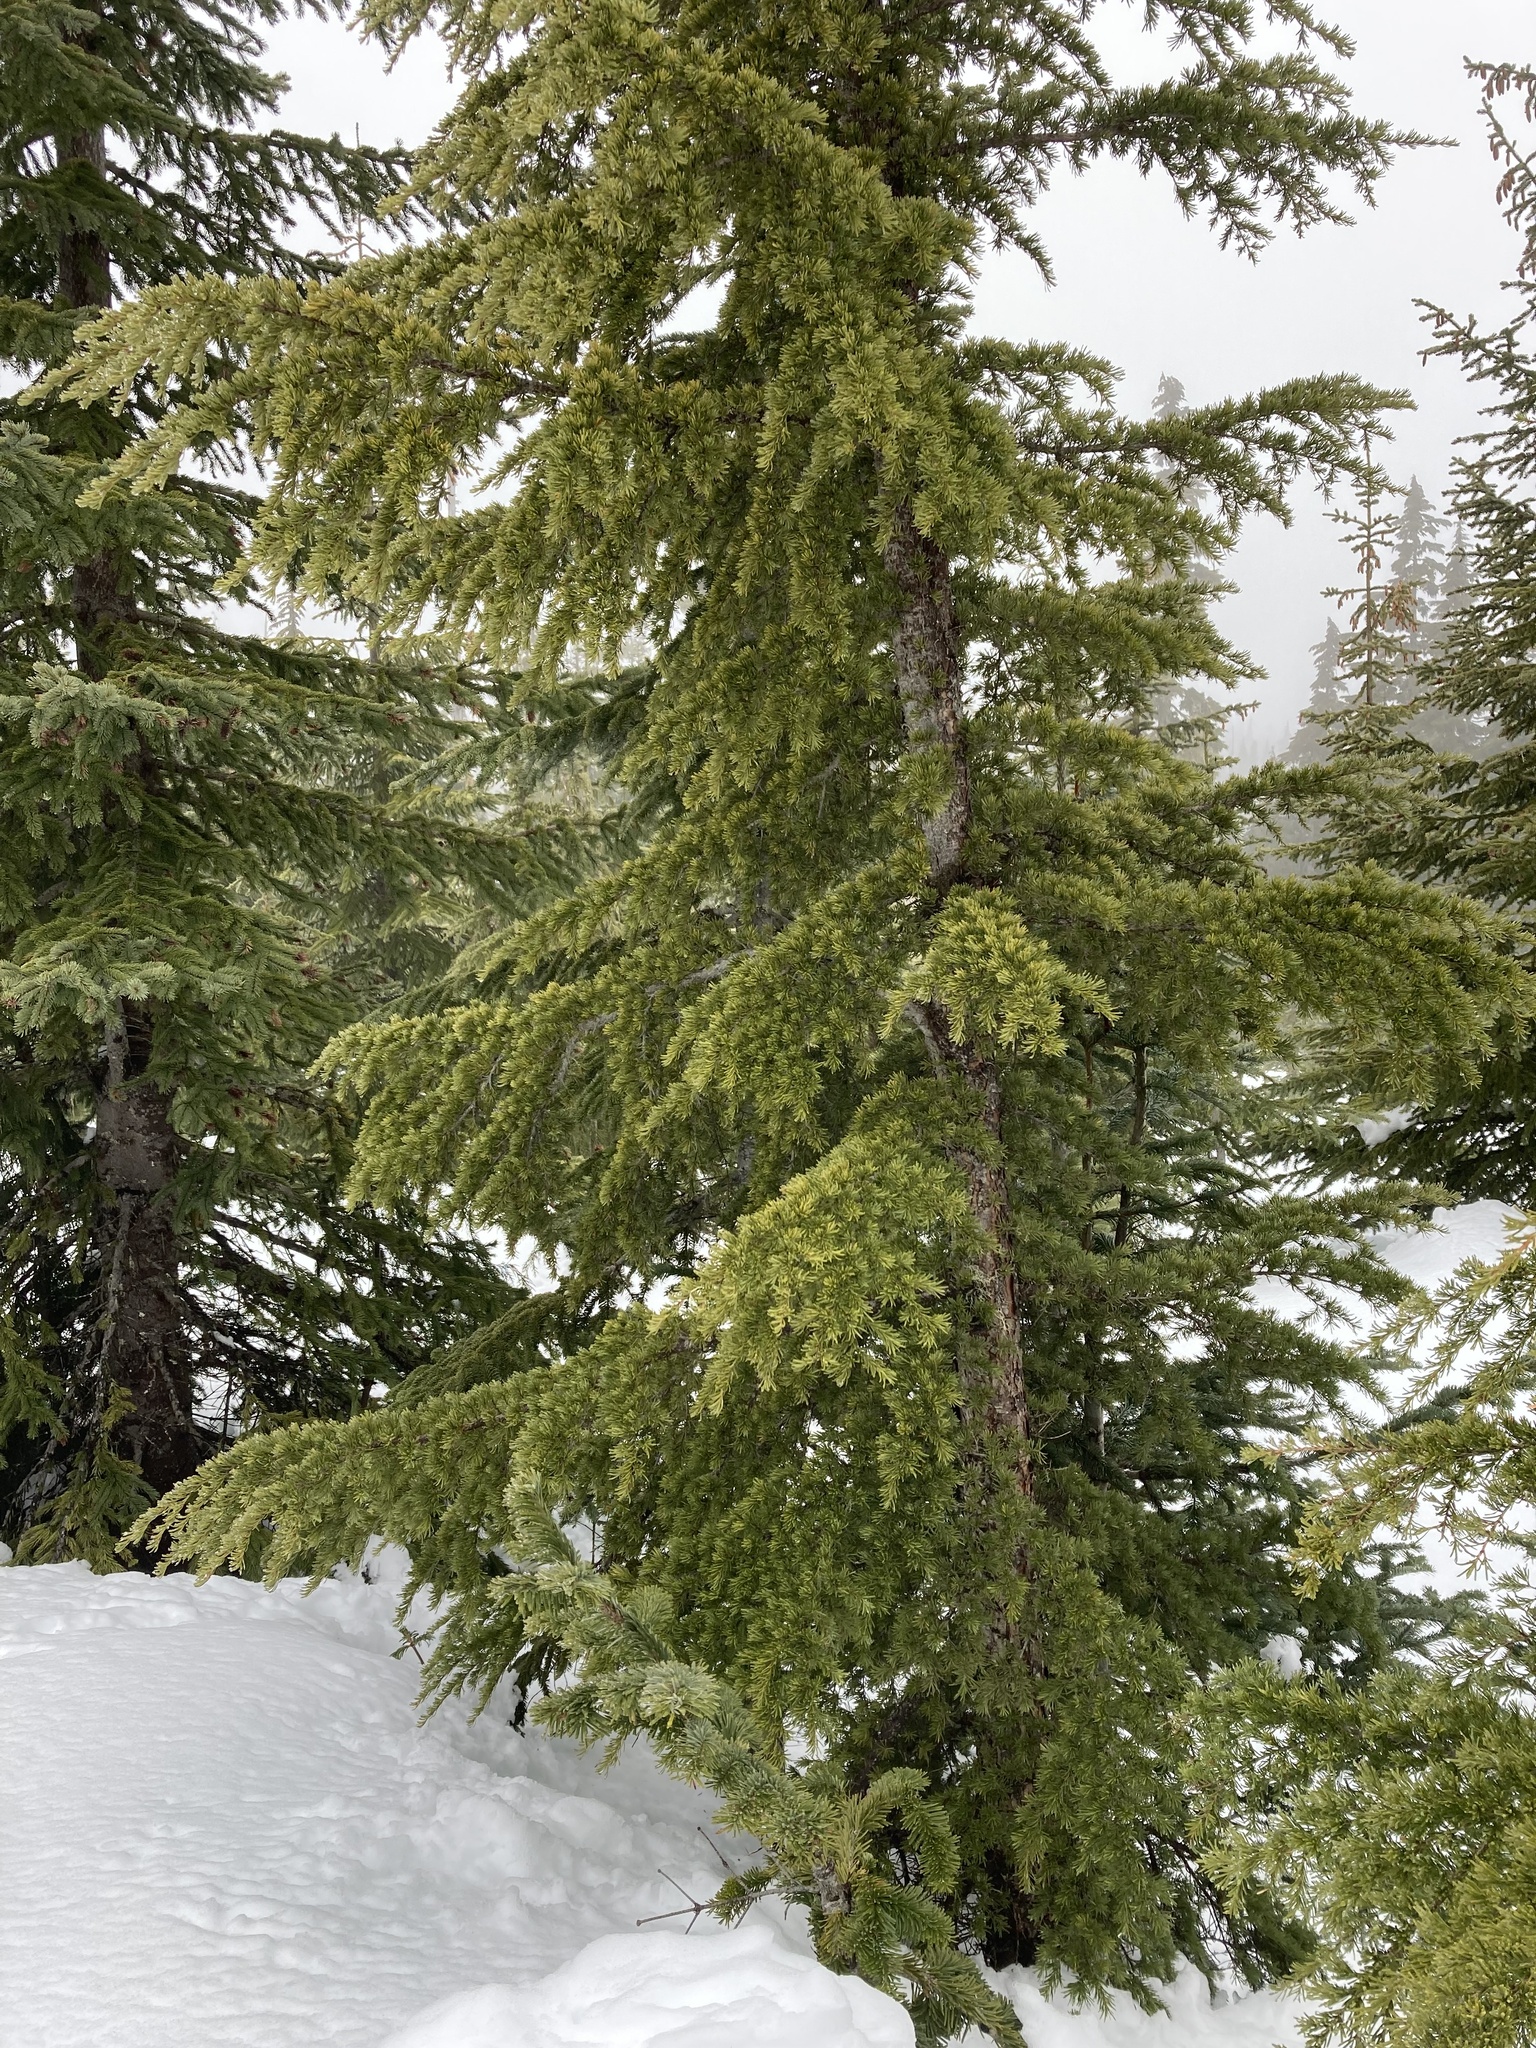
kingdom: Plantae
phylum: Tracheophyta
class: Pinopsida
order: Pinales
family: Pinaceae
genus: Tsuga
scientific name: Tsuga mertensiana
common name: Mountain hemlock
